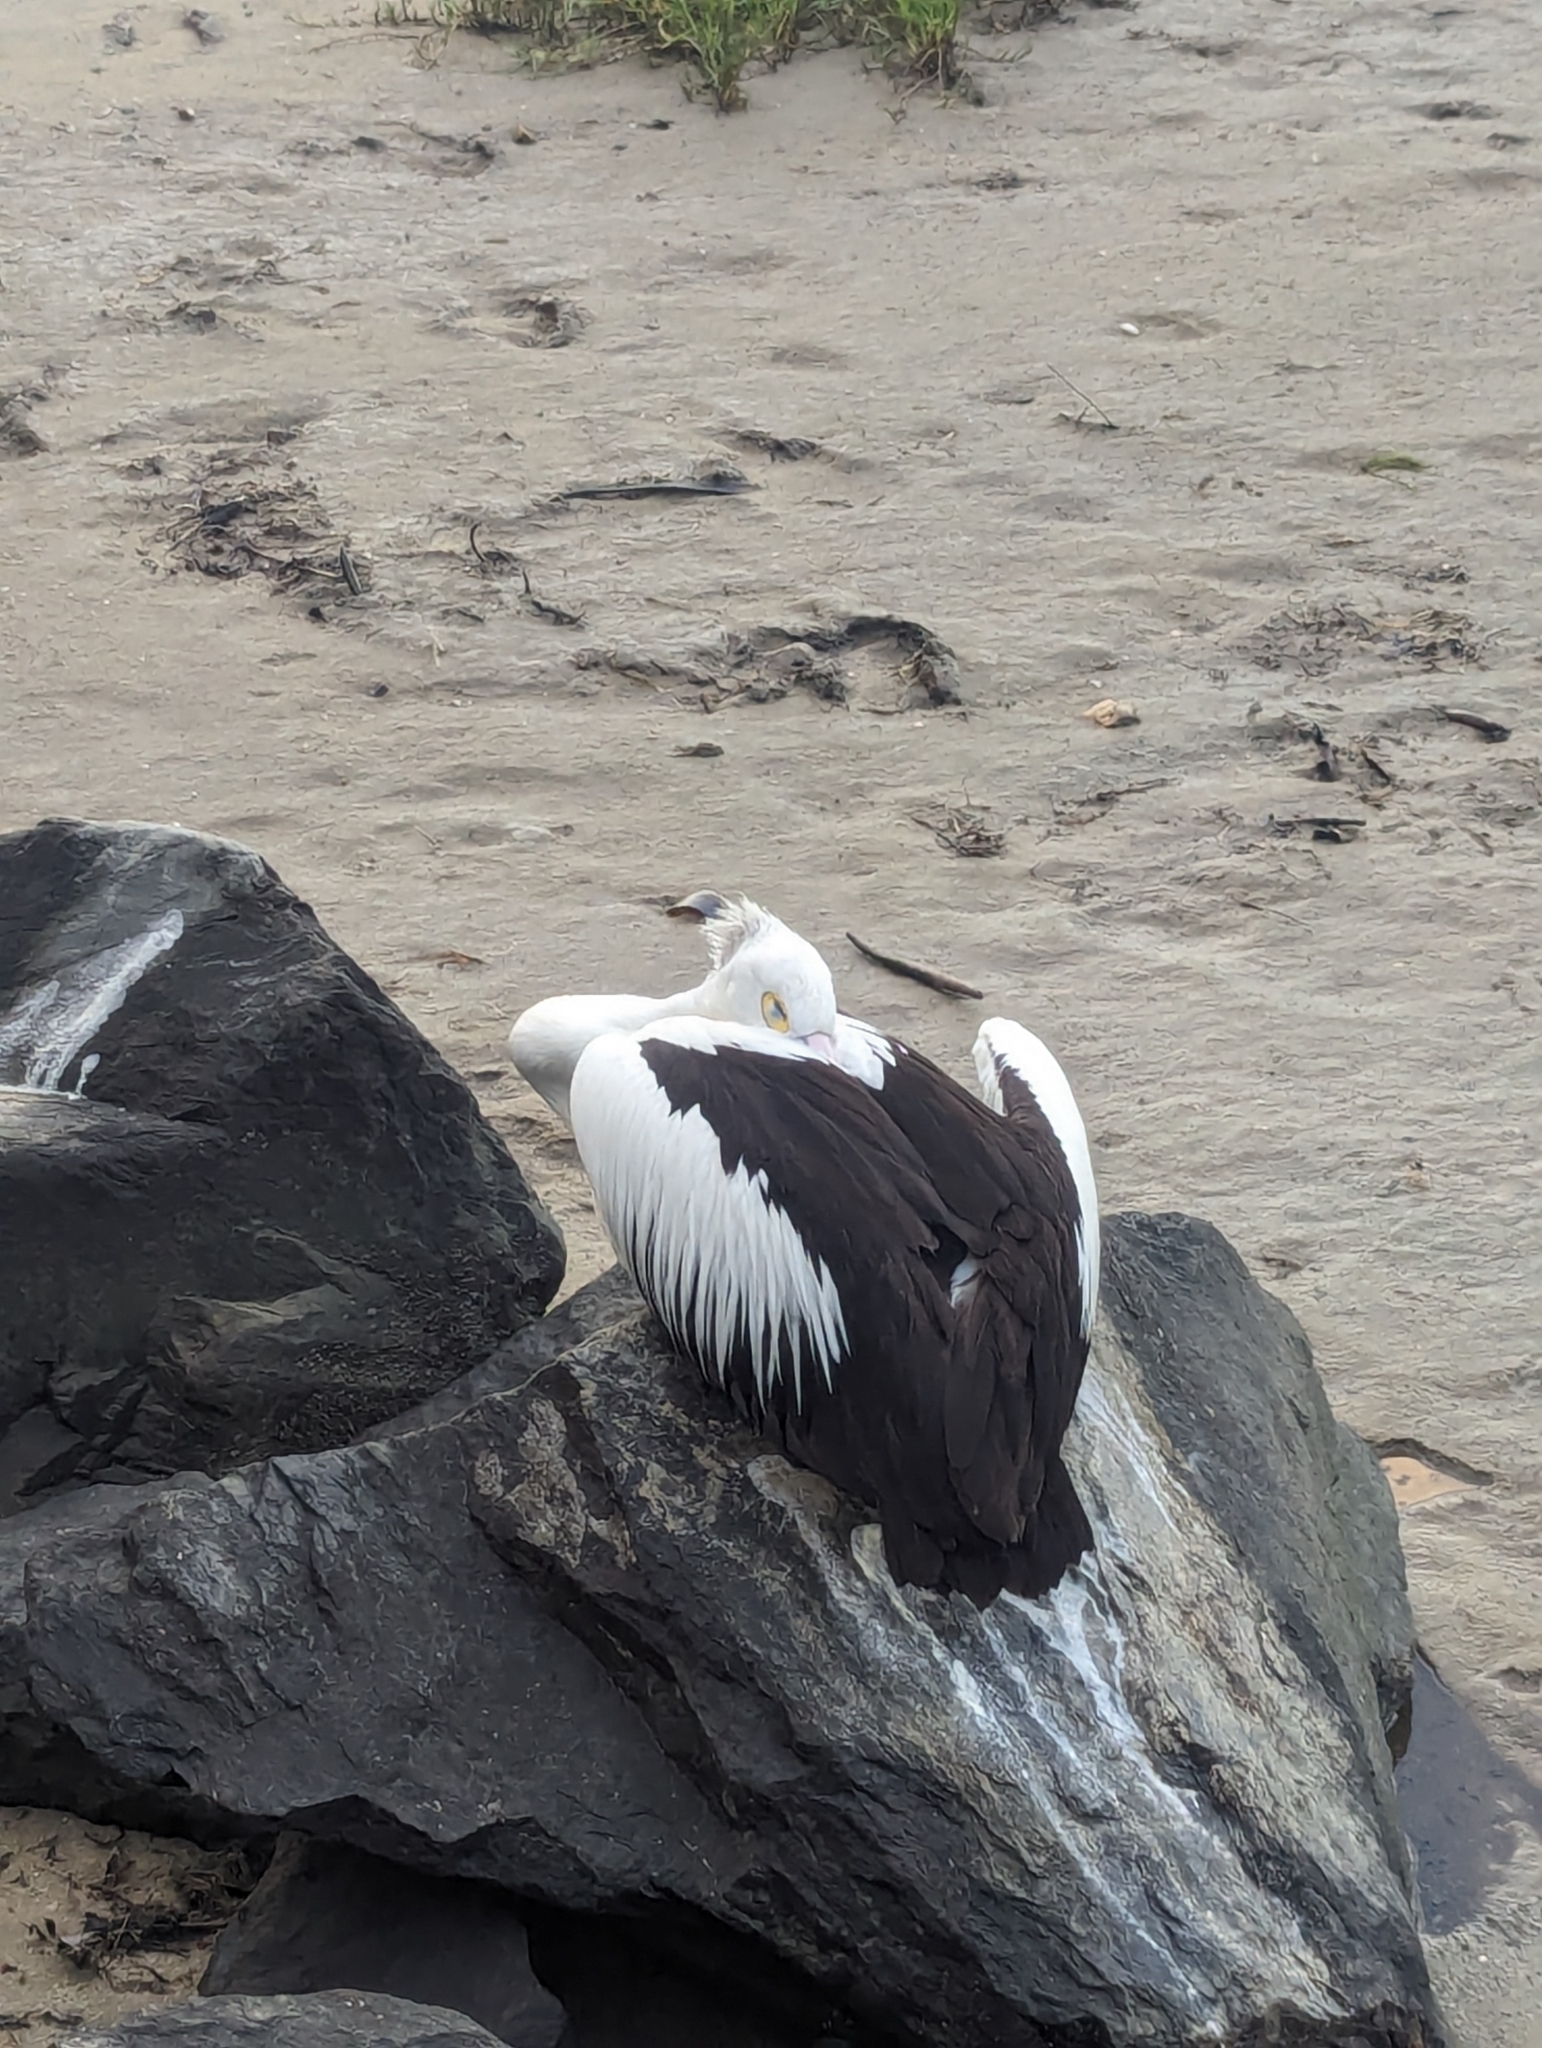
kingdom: Animalia
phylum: Chordata
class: Aves
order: Pelecaniformes
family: Pelecanidae
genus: Pelecanus
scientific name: Pelecanus conspicillatus
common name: Australian pelican
